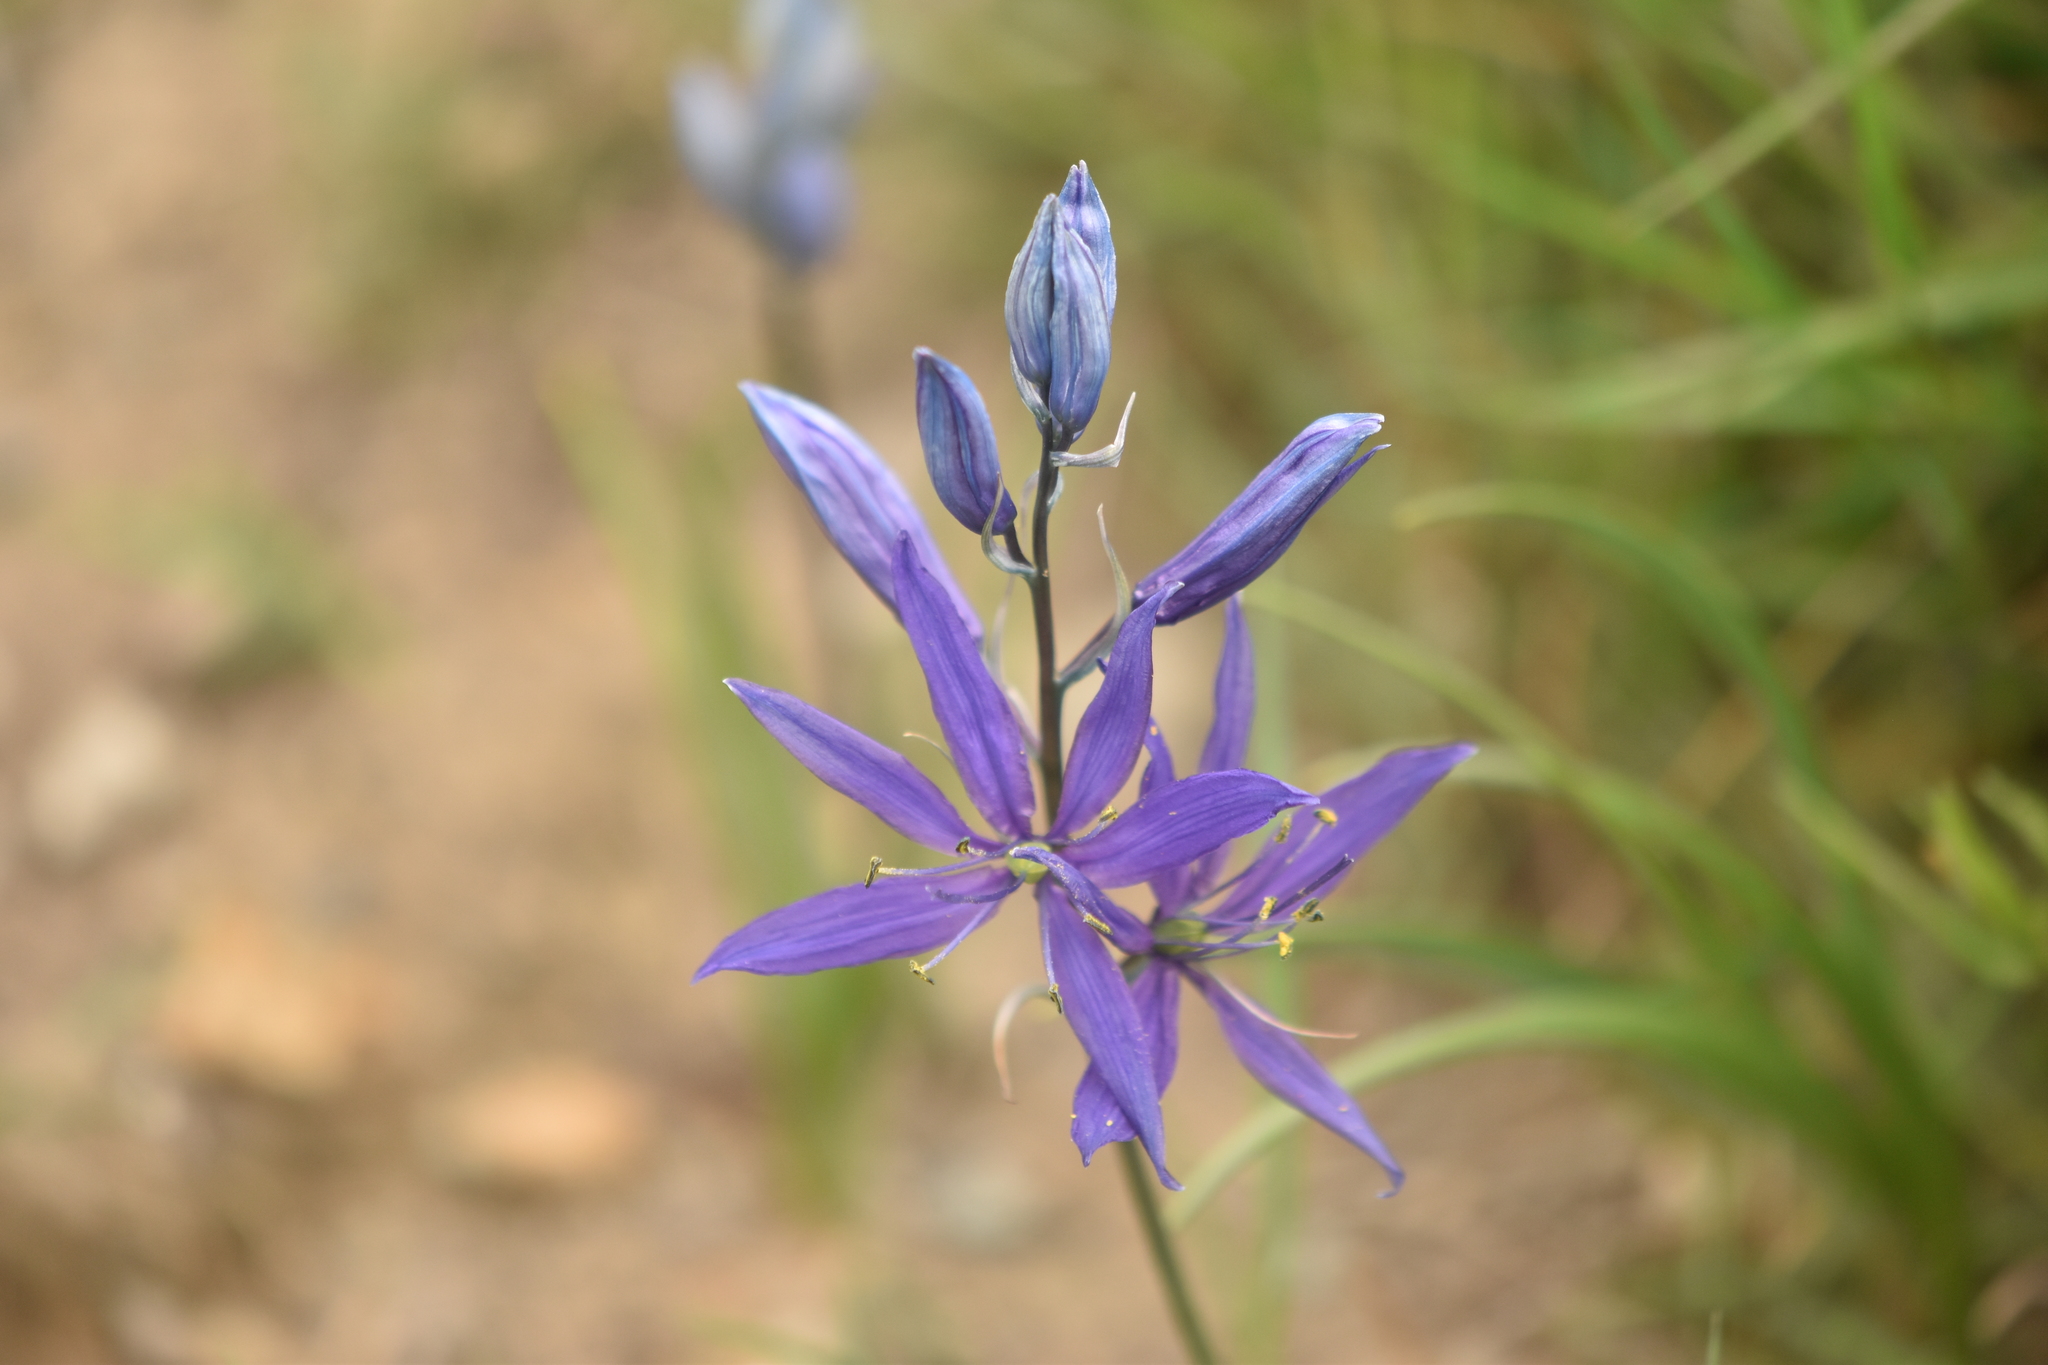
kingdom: Plantae
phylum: Tracheophyta
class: Liliopsida
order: Asparagales
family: Asparagaceae
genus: Camassia
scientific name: Camassia quamash
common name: Common camas
